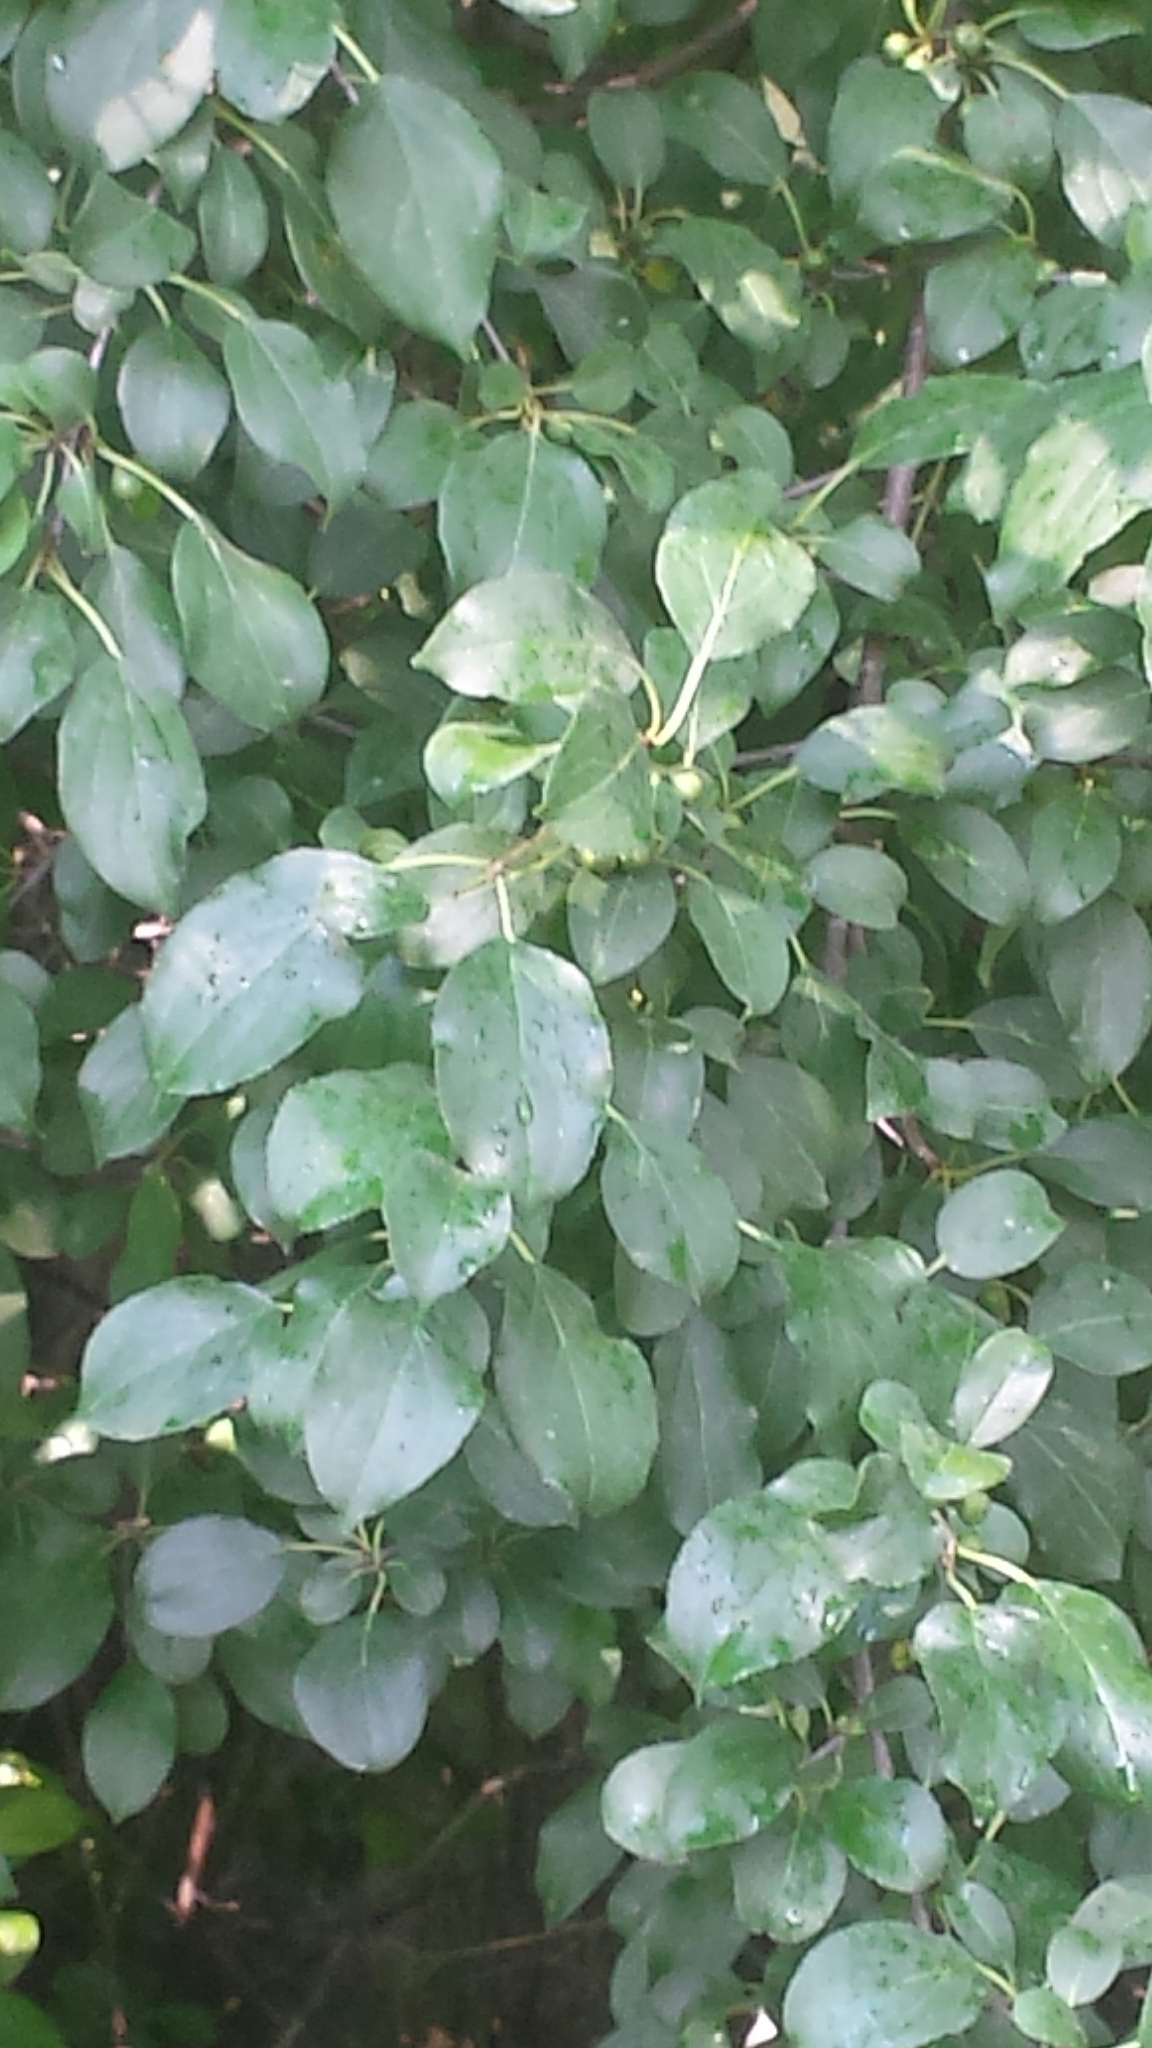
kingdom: Plantae
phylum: Tracheophyta
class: Magnoliopsida
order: Rosales
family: Rhamnaceae
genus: Rhamnus
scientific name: Rhamnus cathartica
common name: Common buckthorn
